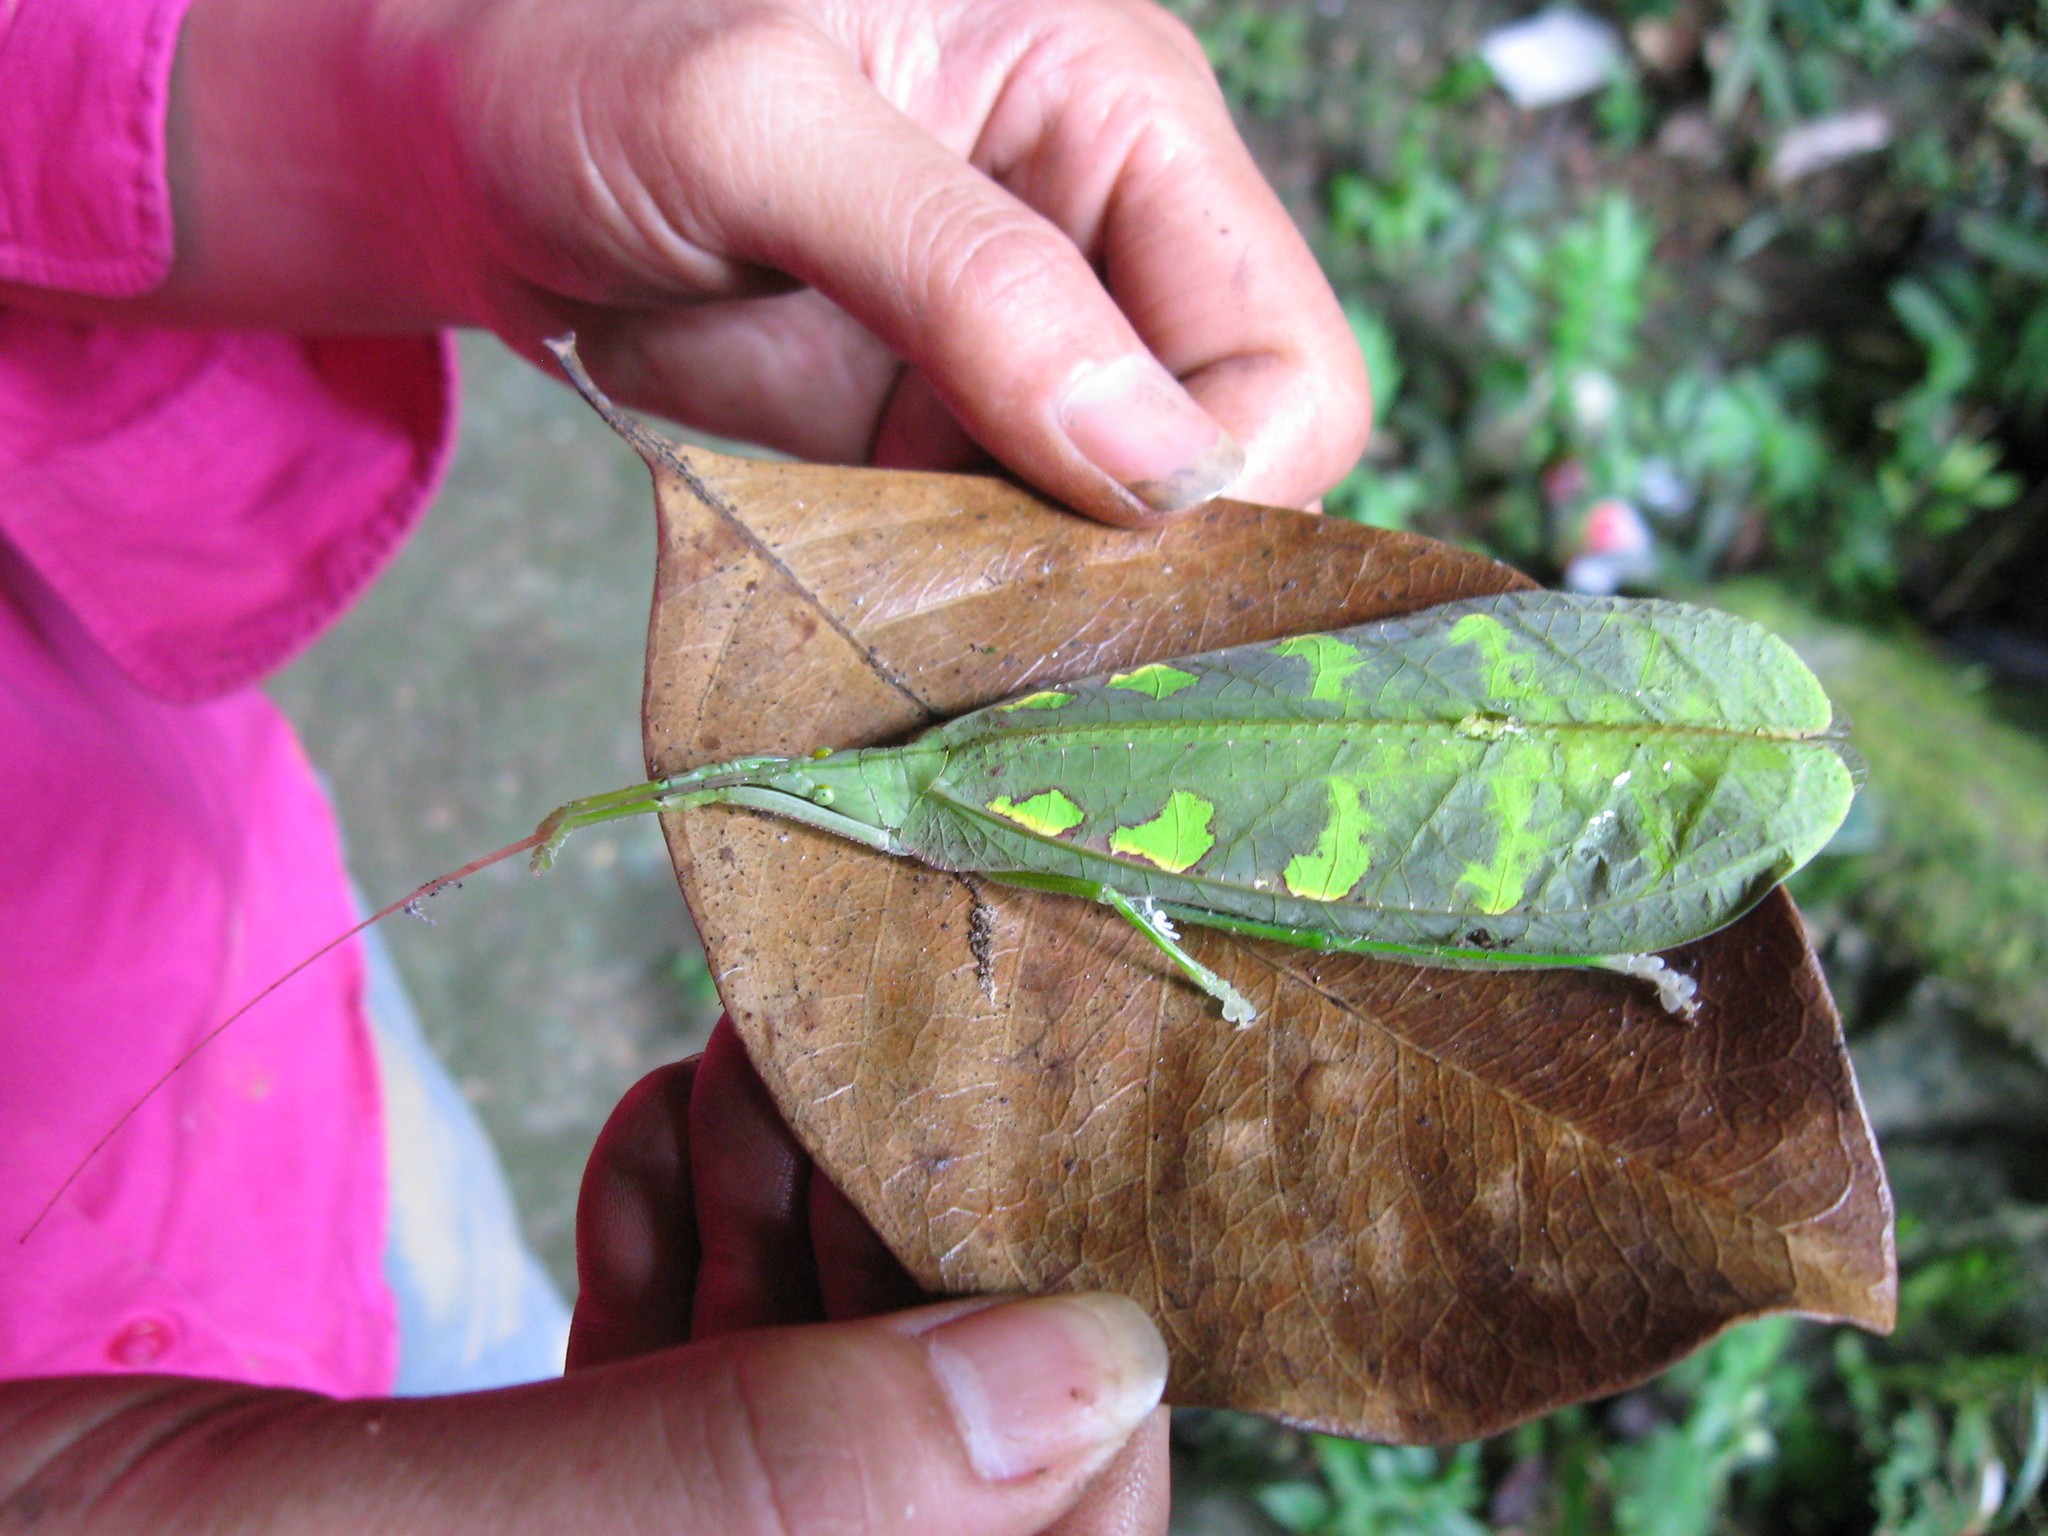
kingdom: Animalia
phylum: Arthropoda
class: Insecta
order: Orthoptera
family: Tettigoniidae
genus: Tympanophyllum
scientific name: Tympanophyllum arcufolium
